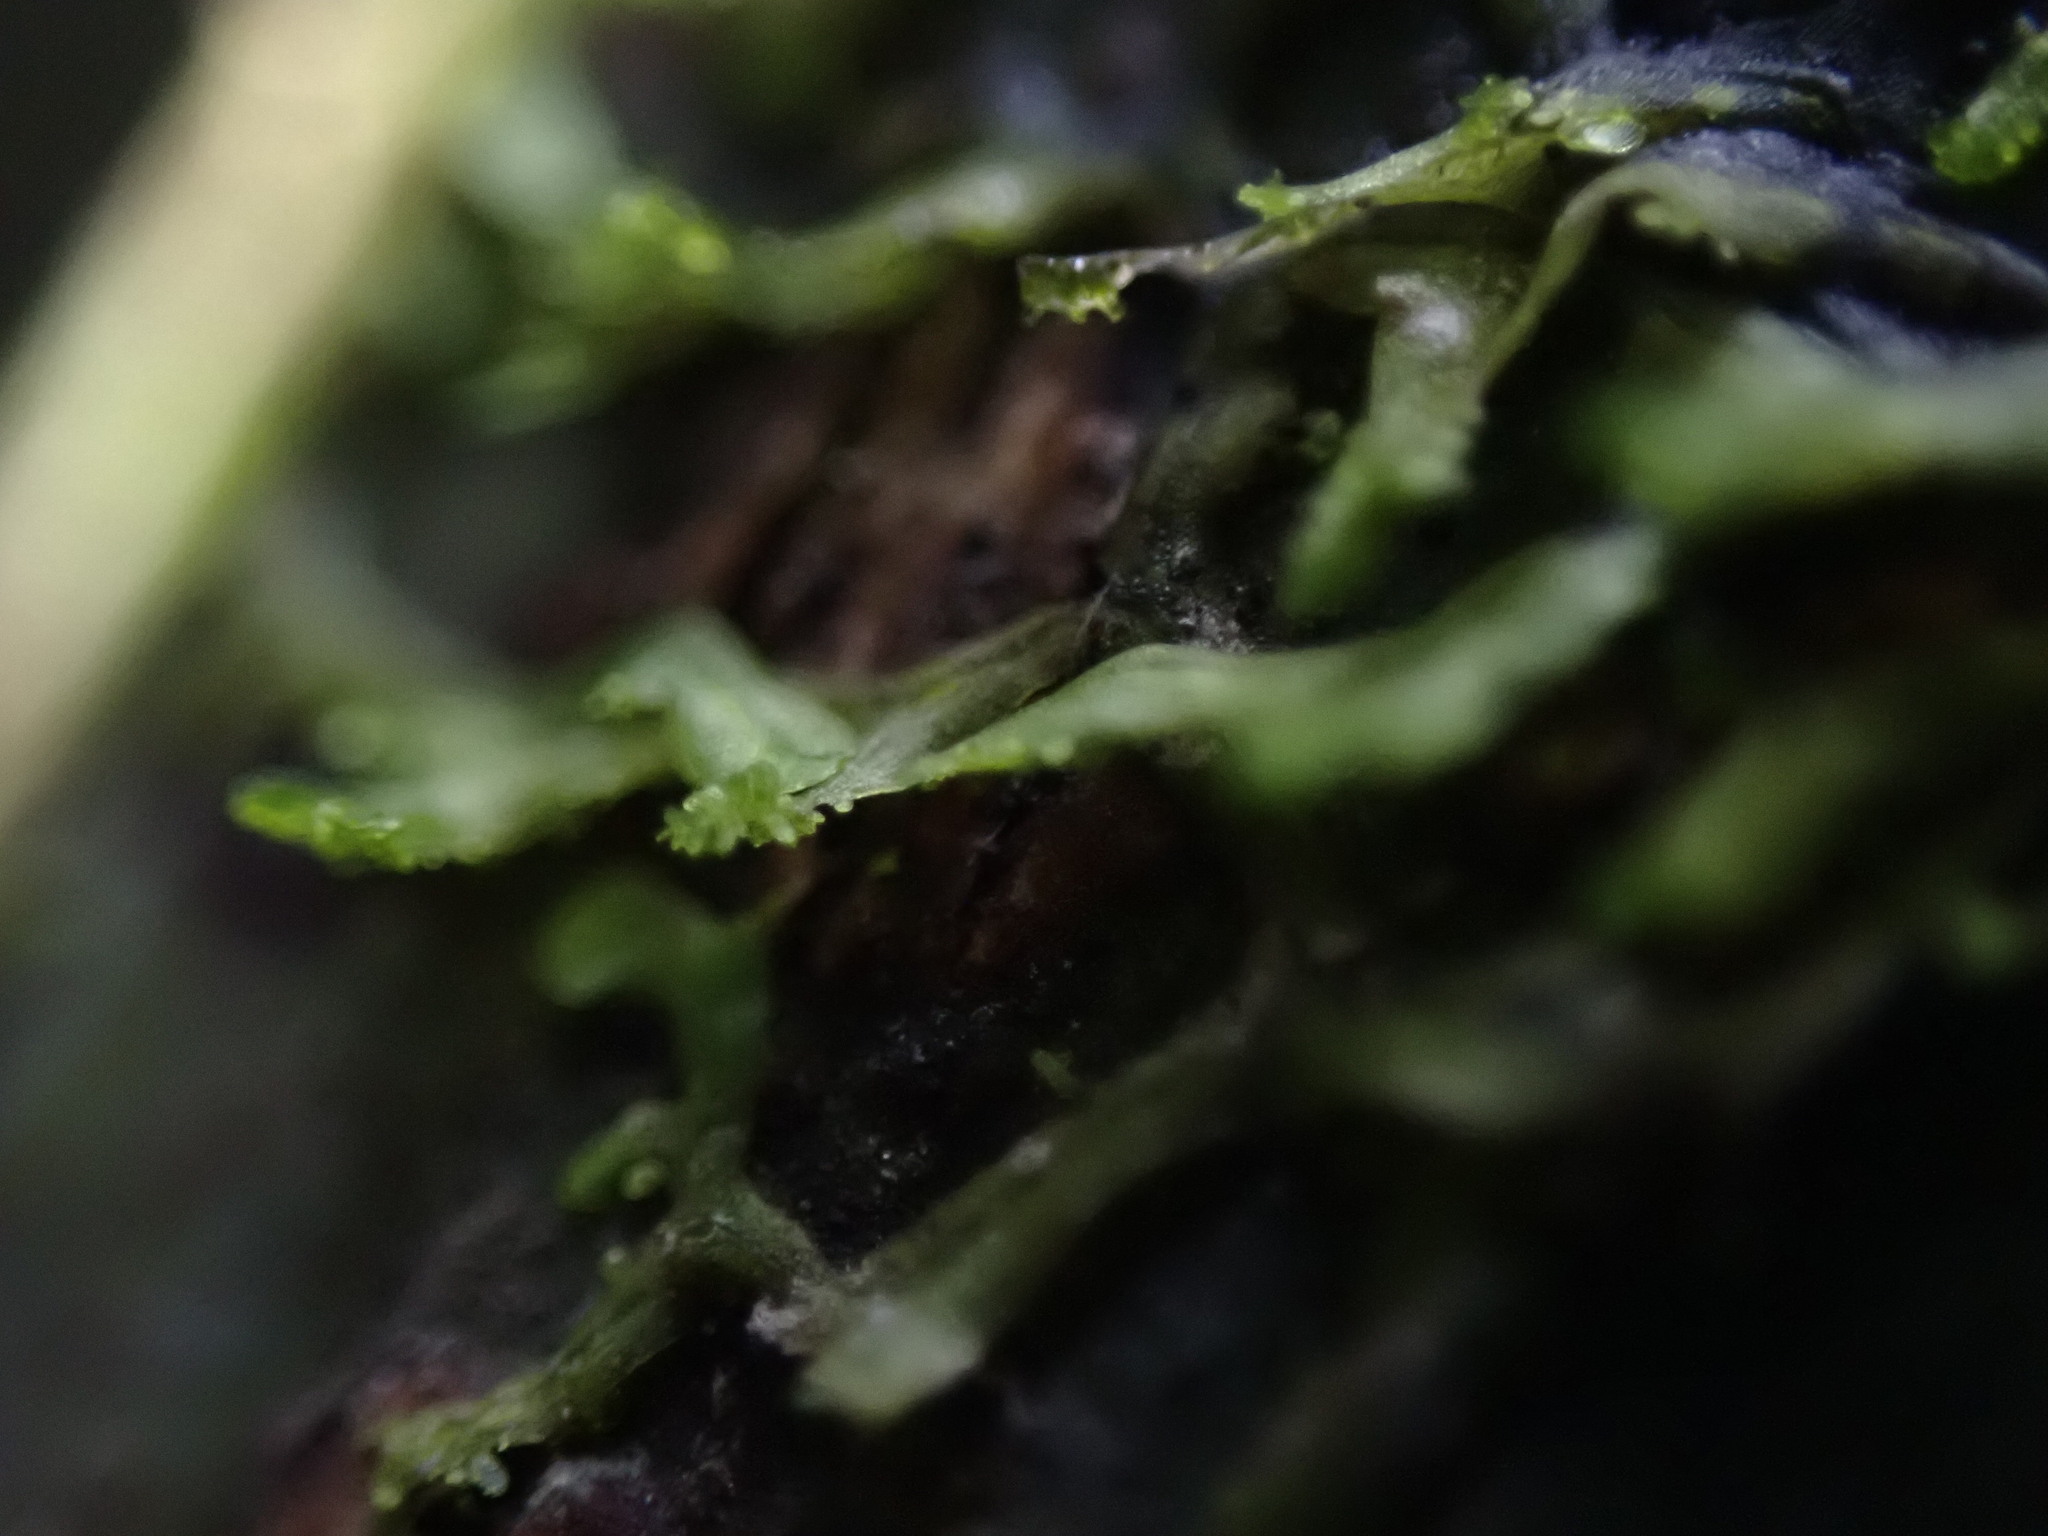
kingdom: Plantae
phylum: Marchantiophyta
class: Jungermanniopsida
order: Metzgeriales
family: Metzgeriaceae
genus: Metzgeria
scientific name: Metzgeria consanguinea
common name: Whiskered veilwort
